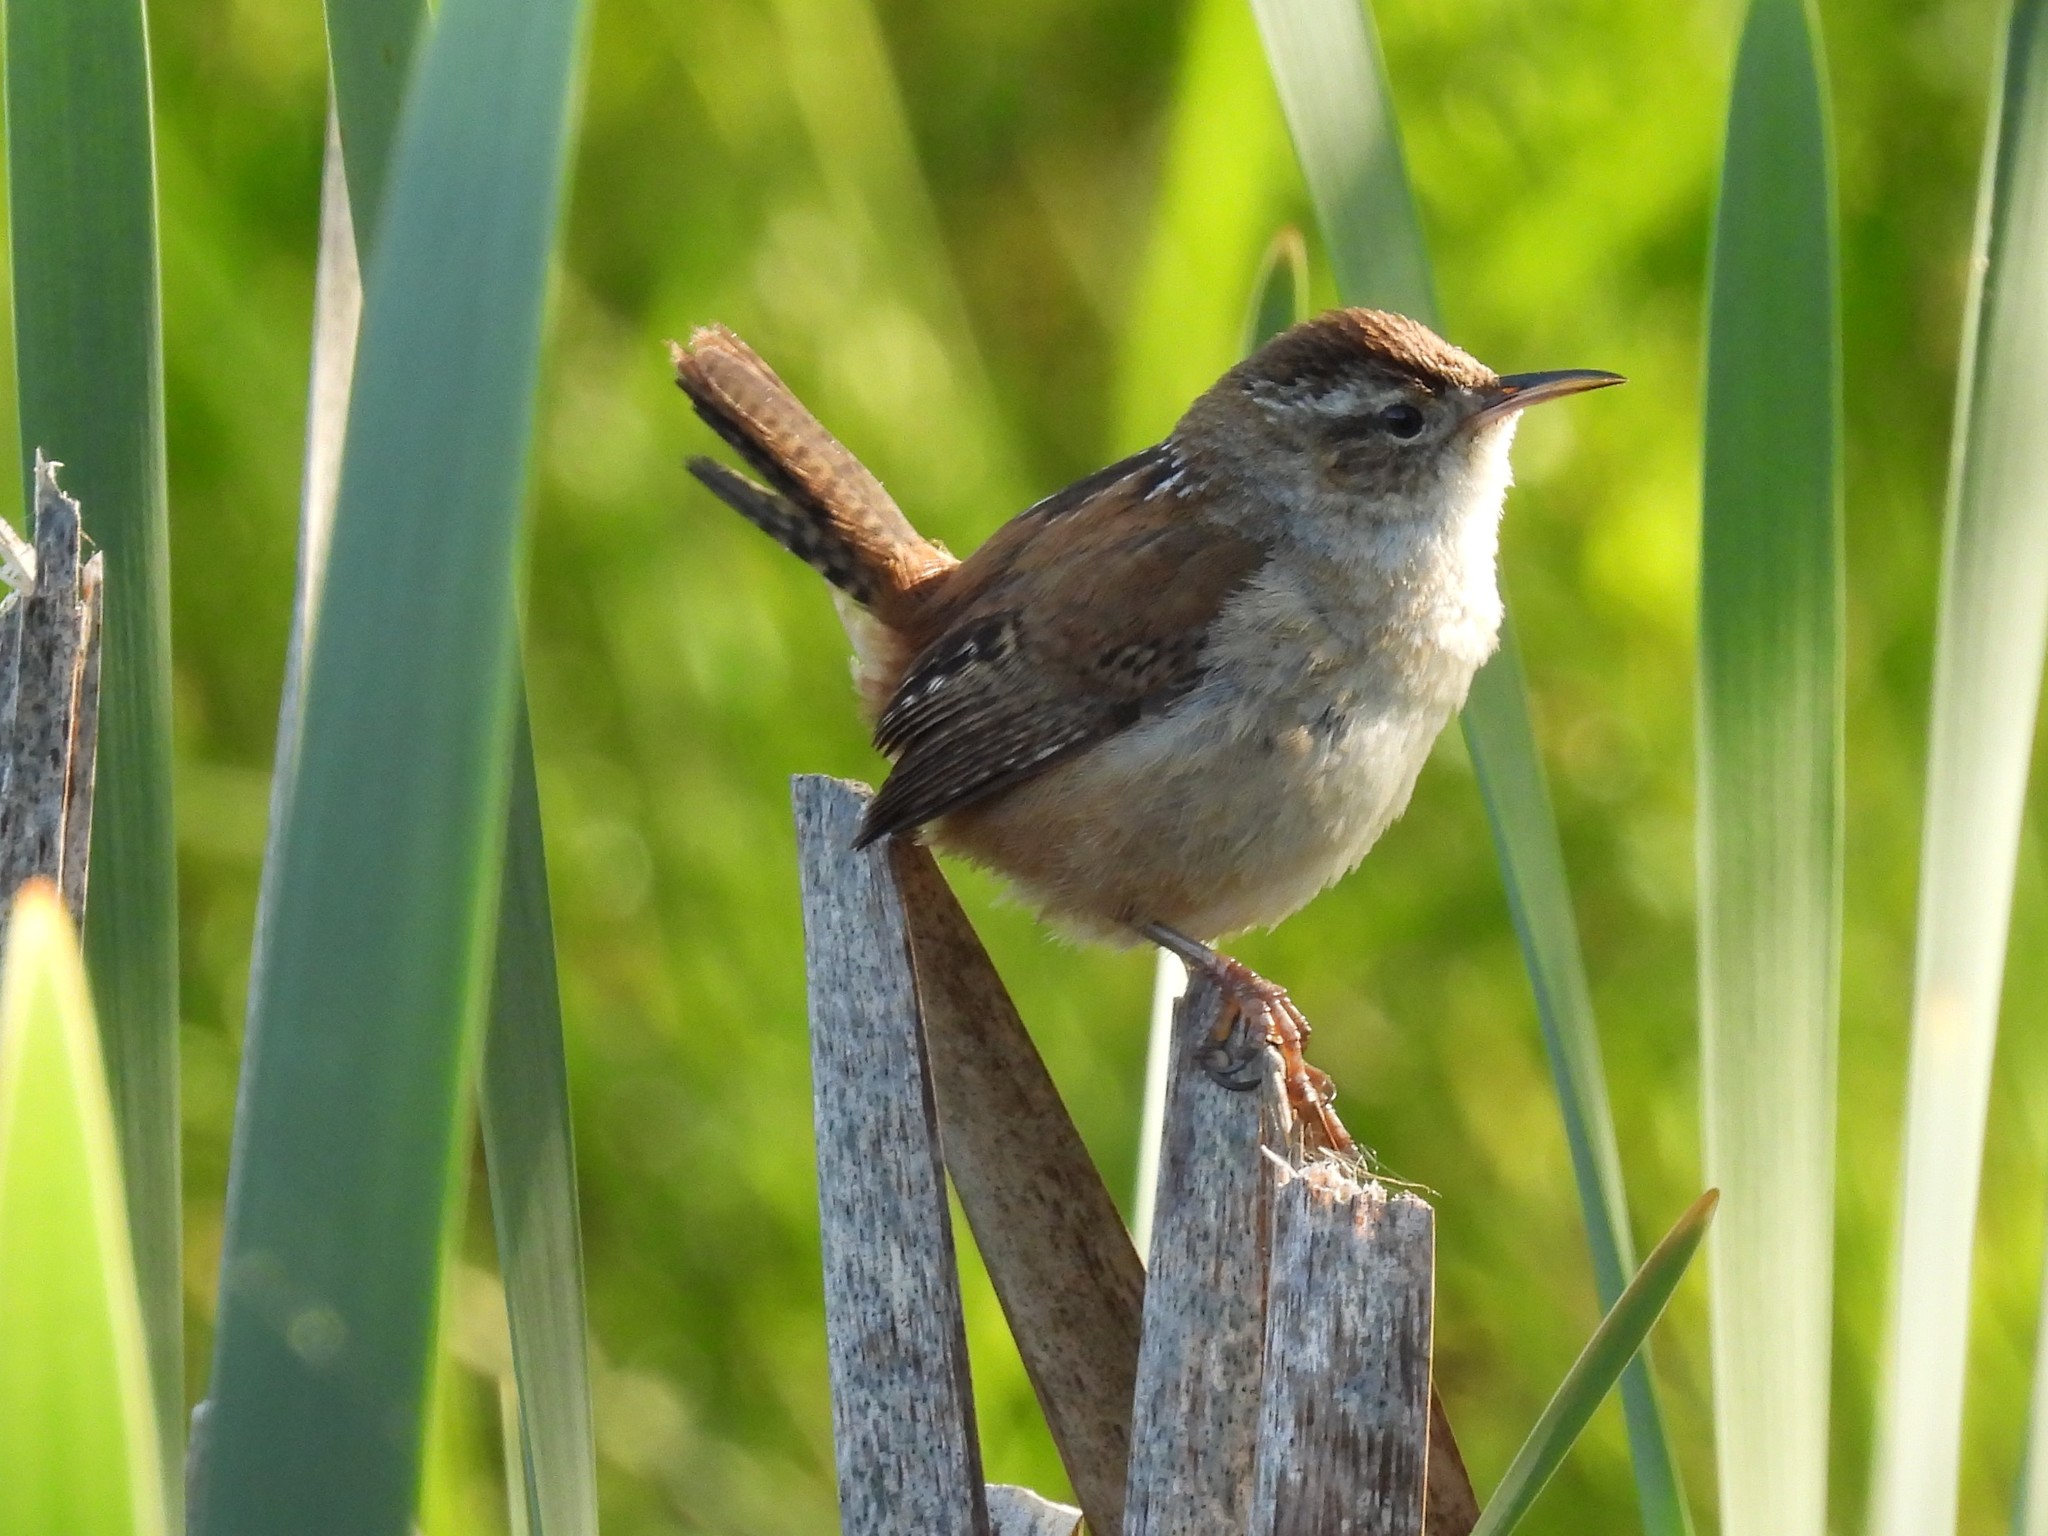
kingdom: Animalia
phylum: Chordata
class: Aves
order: Passeriformes
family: Troglodytidae
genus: Cistothorus
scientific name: Cistothorus palustris
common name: Marsh wren
